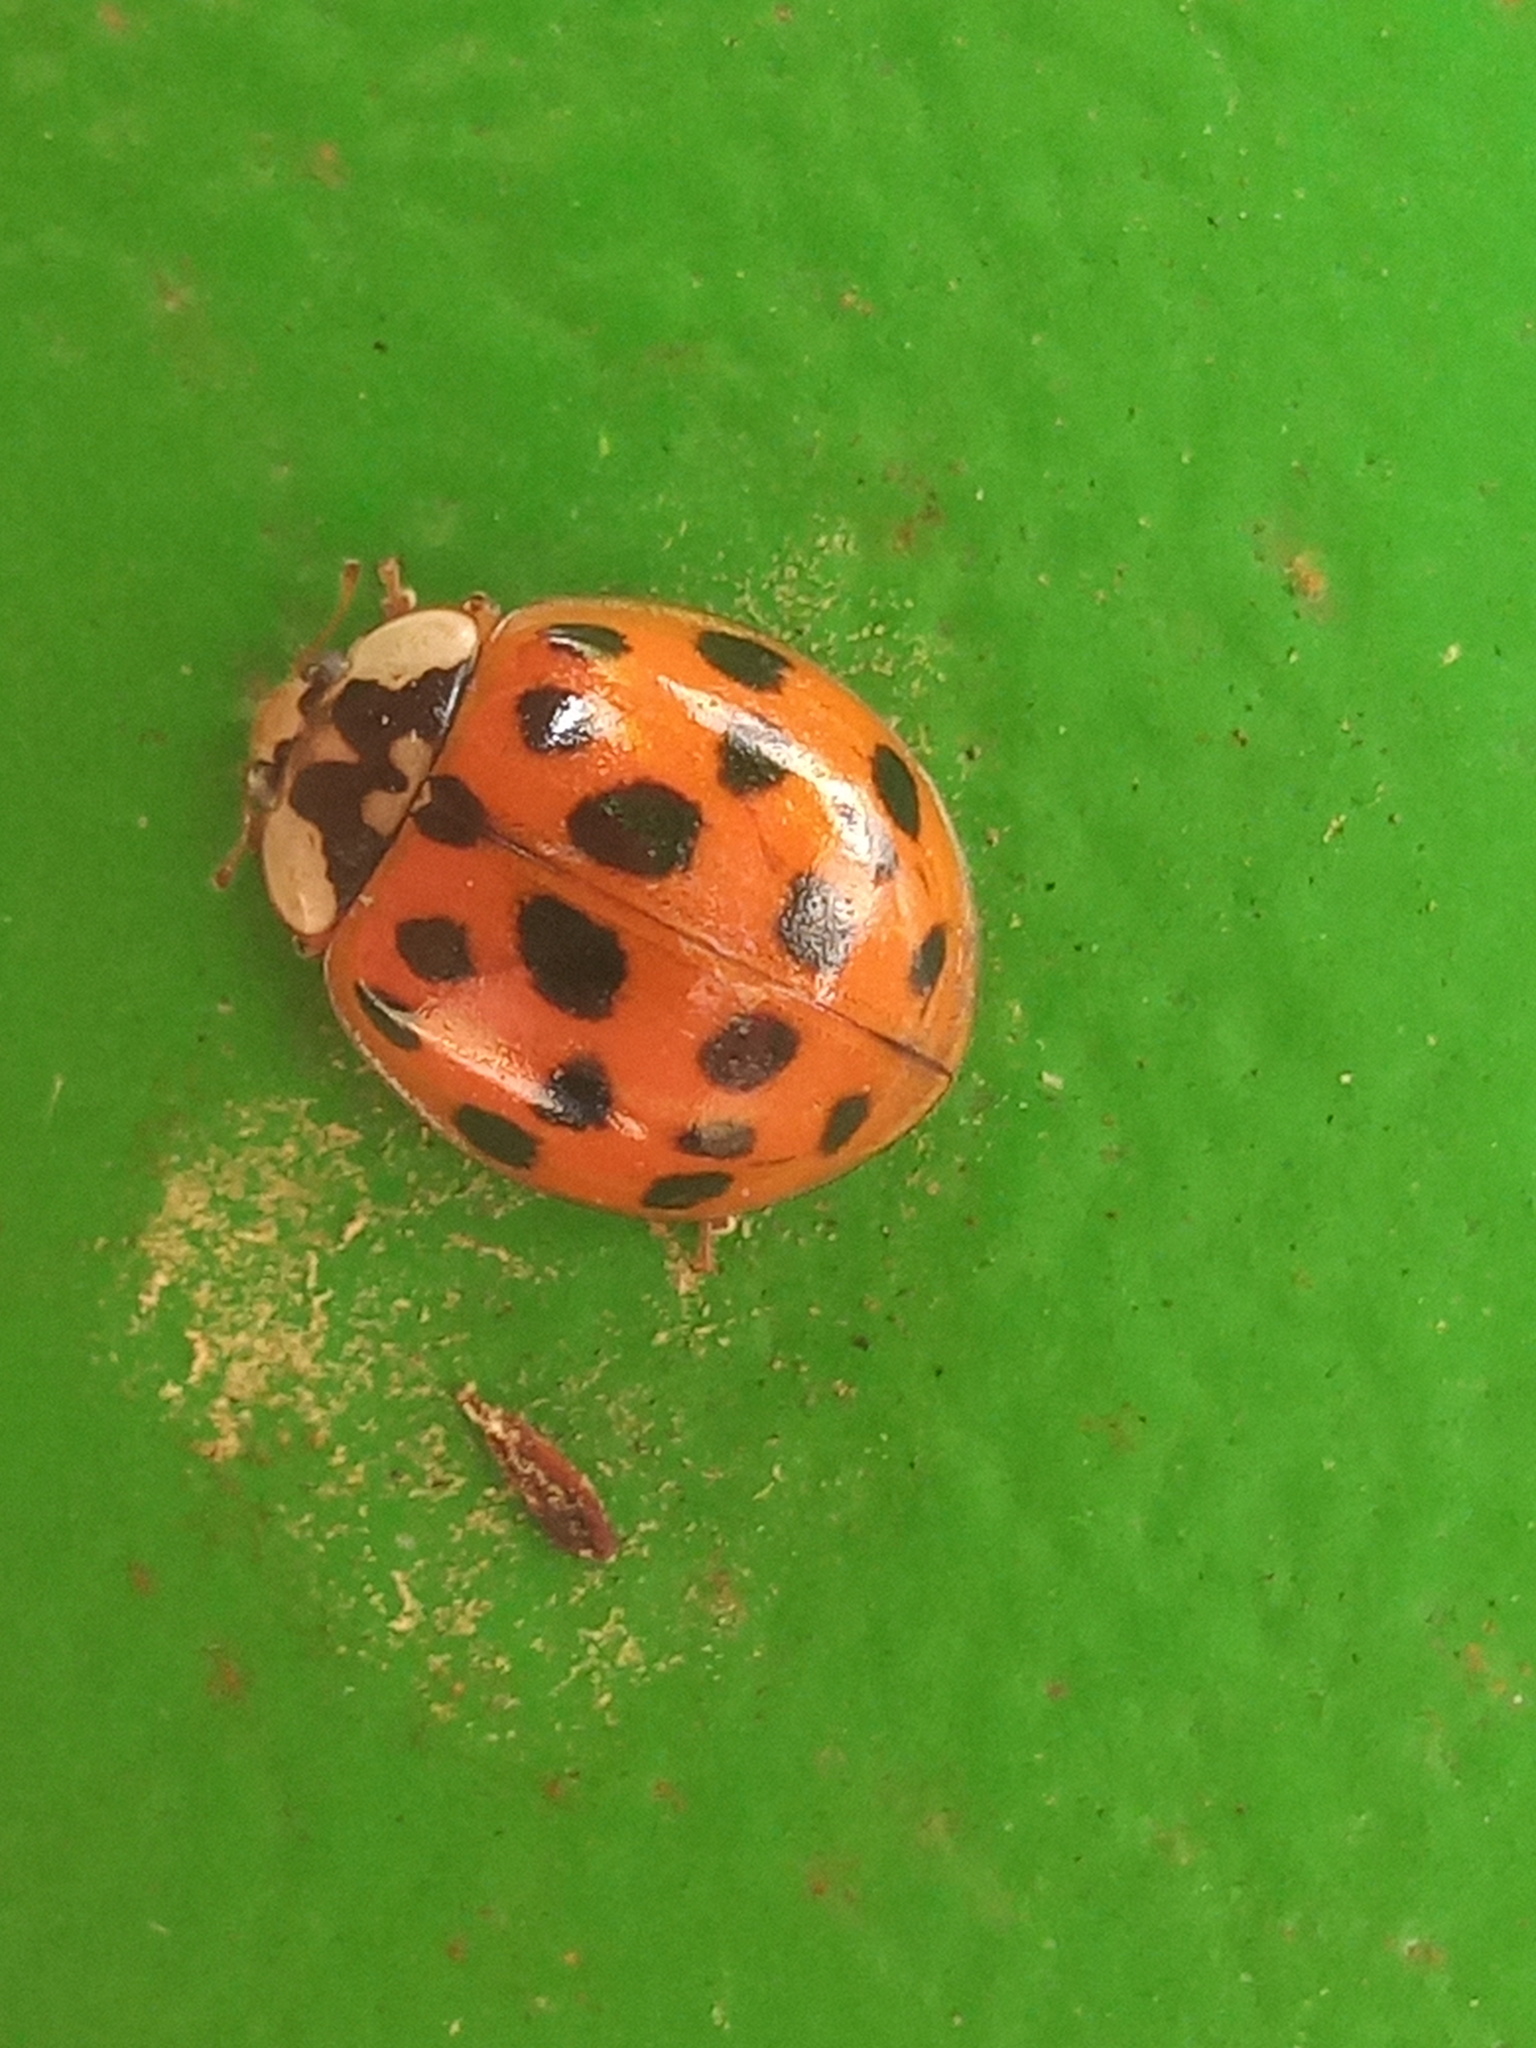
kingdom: Animalia
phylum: Arthropoda
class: Insecta
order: Coleoptera
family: Coccinellidae
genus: Harmonia
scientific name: Harmonia axyridis
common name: Harlequin ladybird
